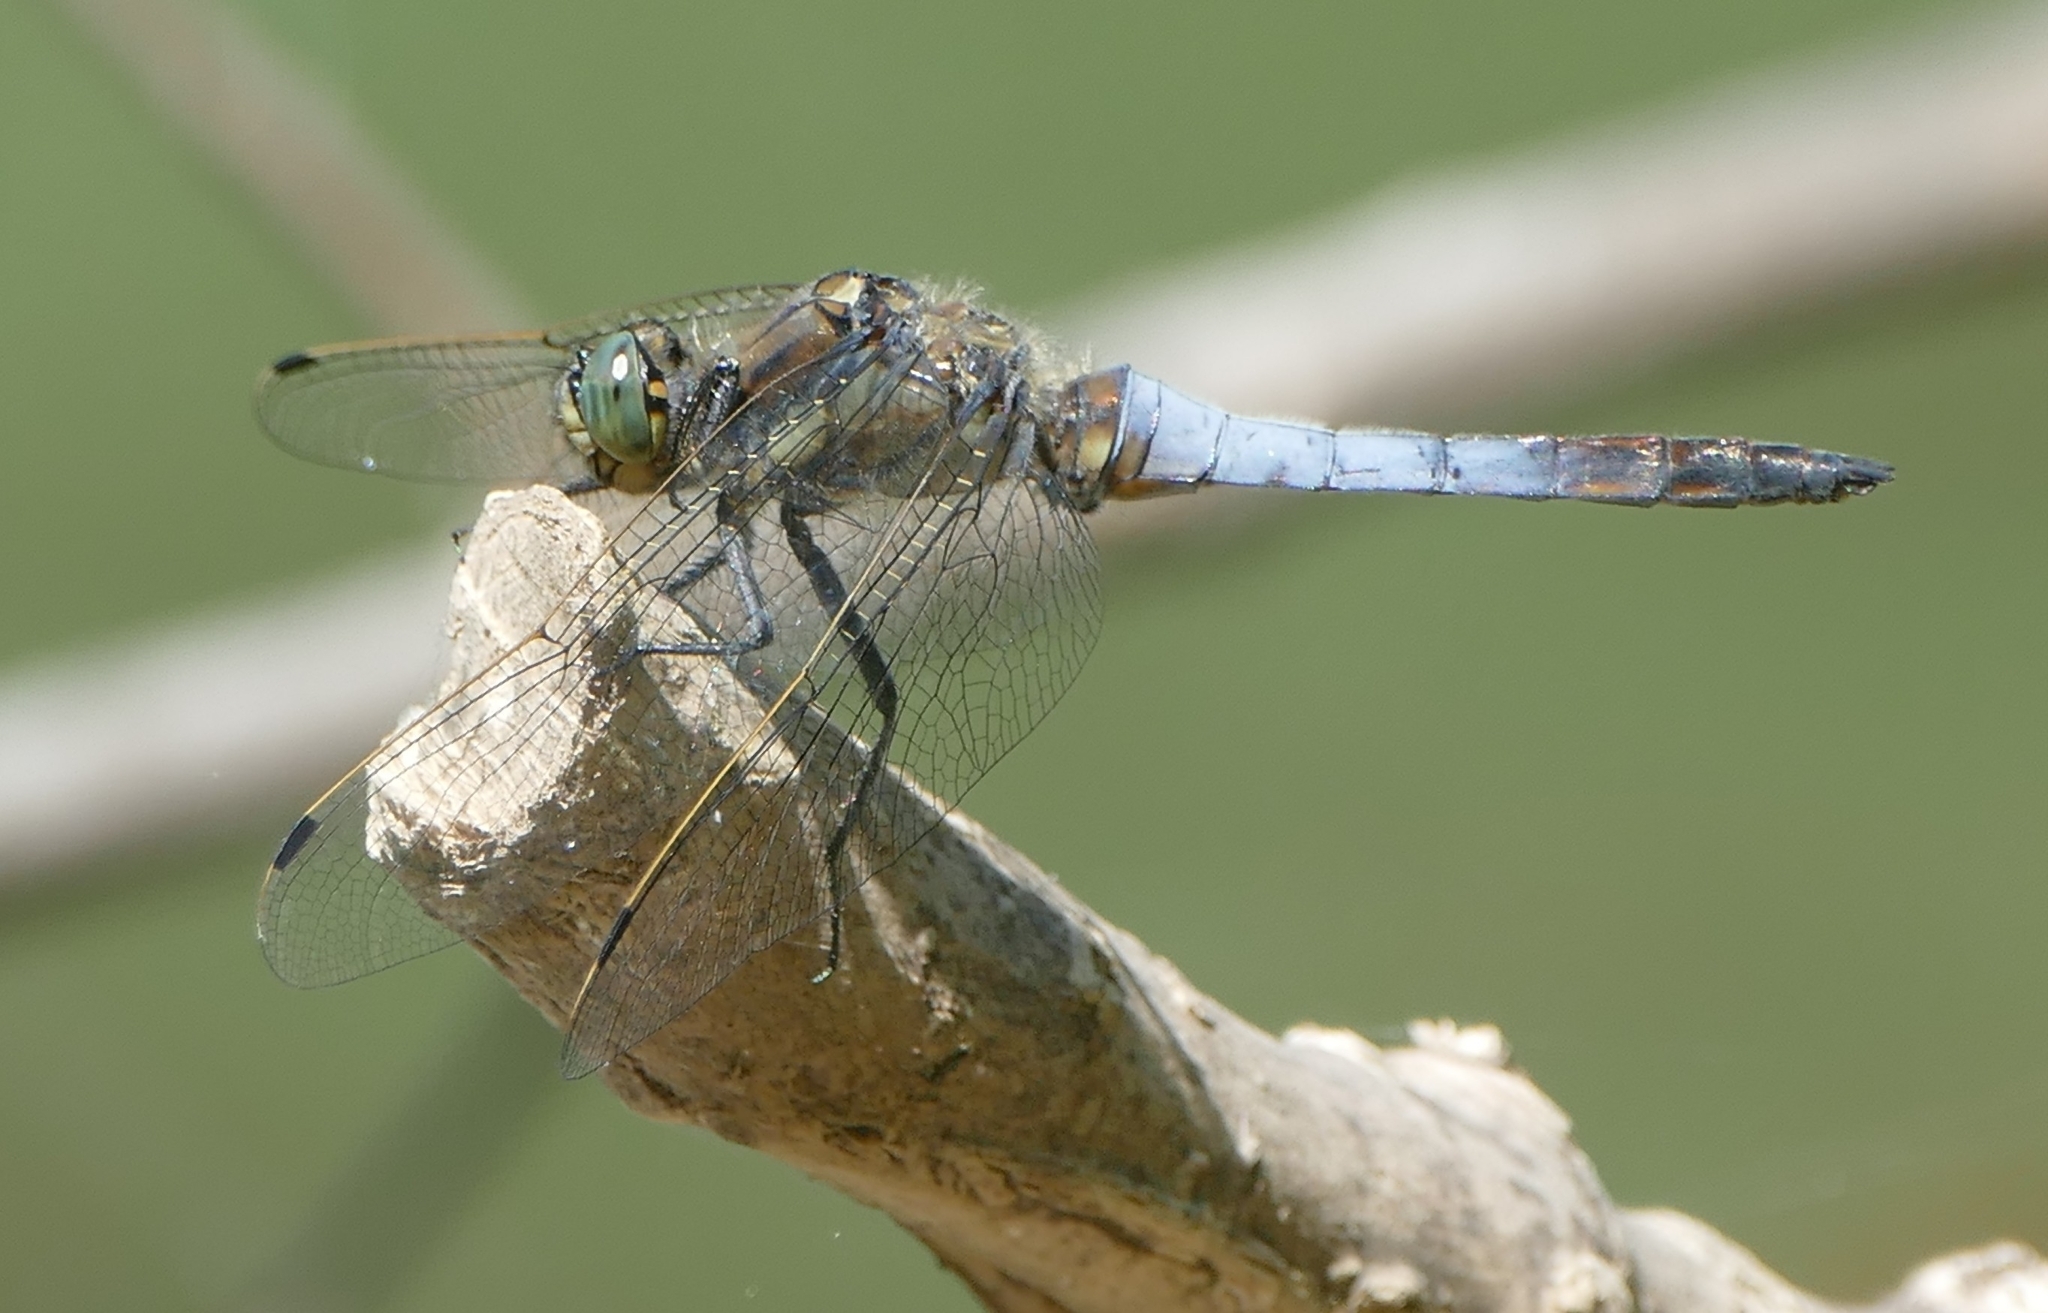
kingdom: Animalia
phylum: Arthropoda
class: Insecta
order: Odonata
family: Libellulidae
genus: Orthetrum
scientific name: Orthetrum cancellatum
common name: Black-tailed skimmer
